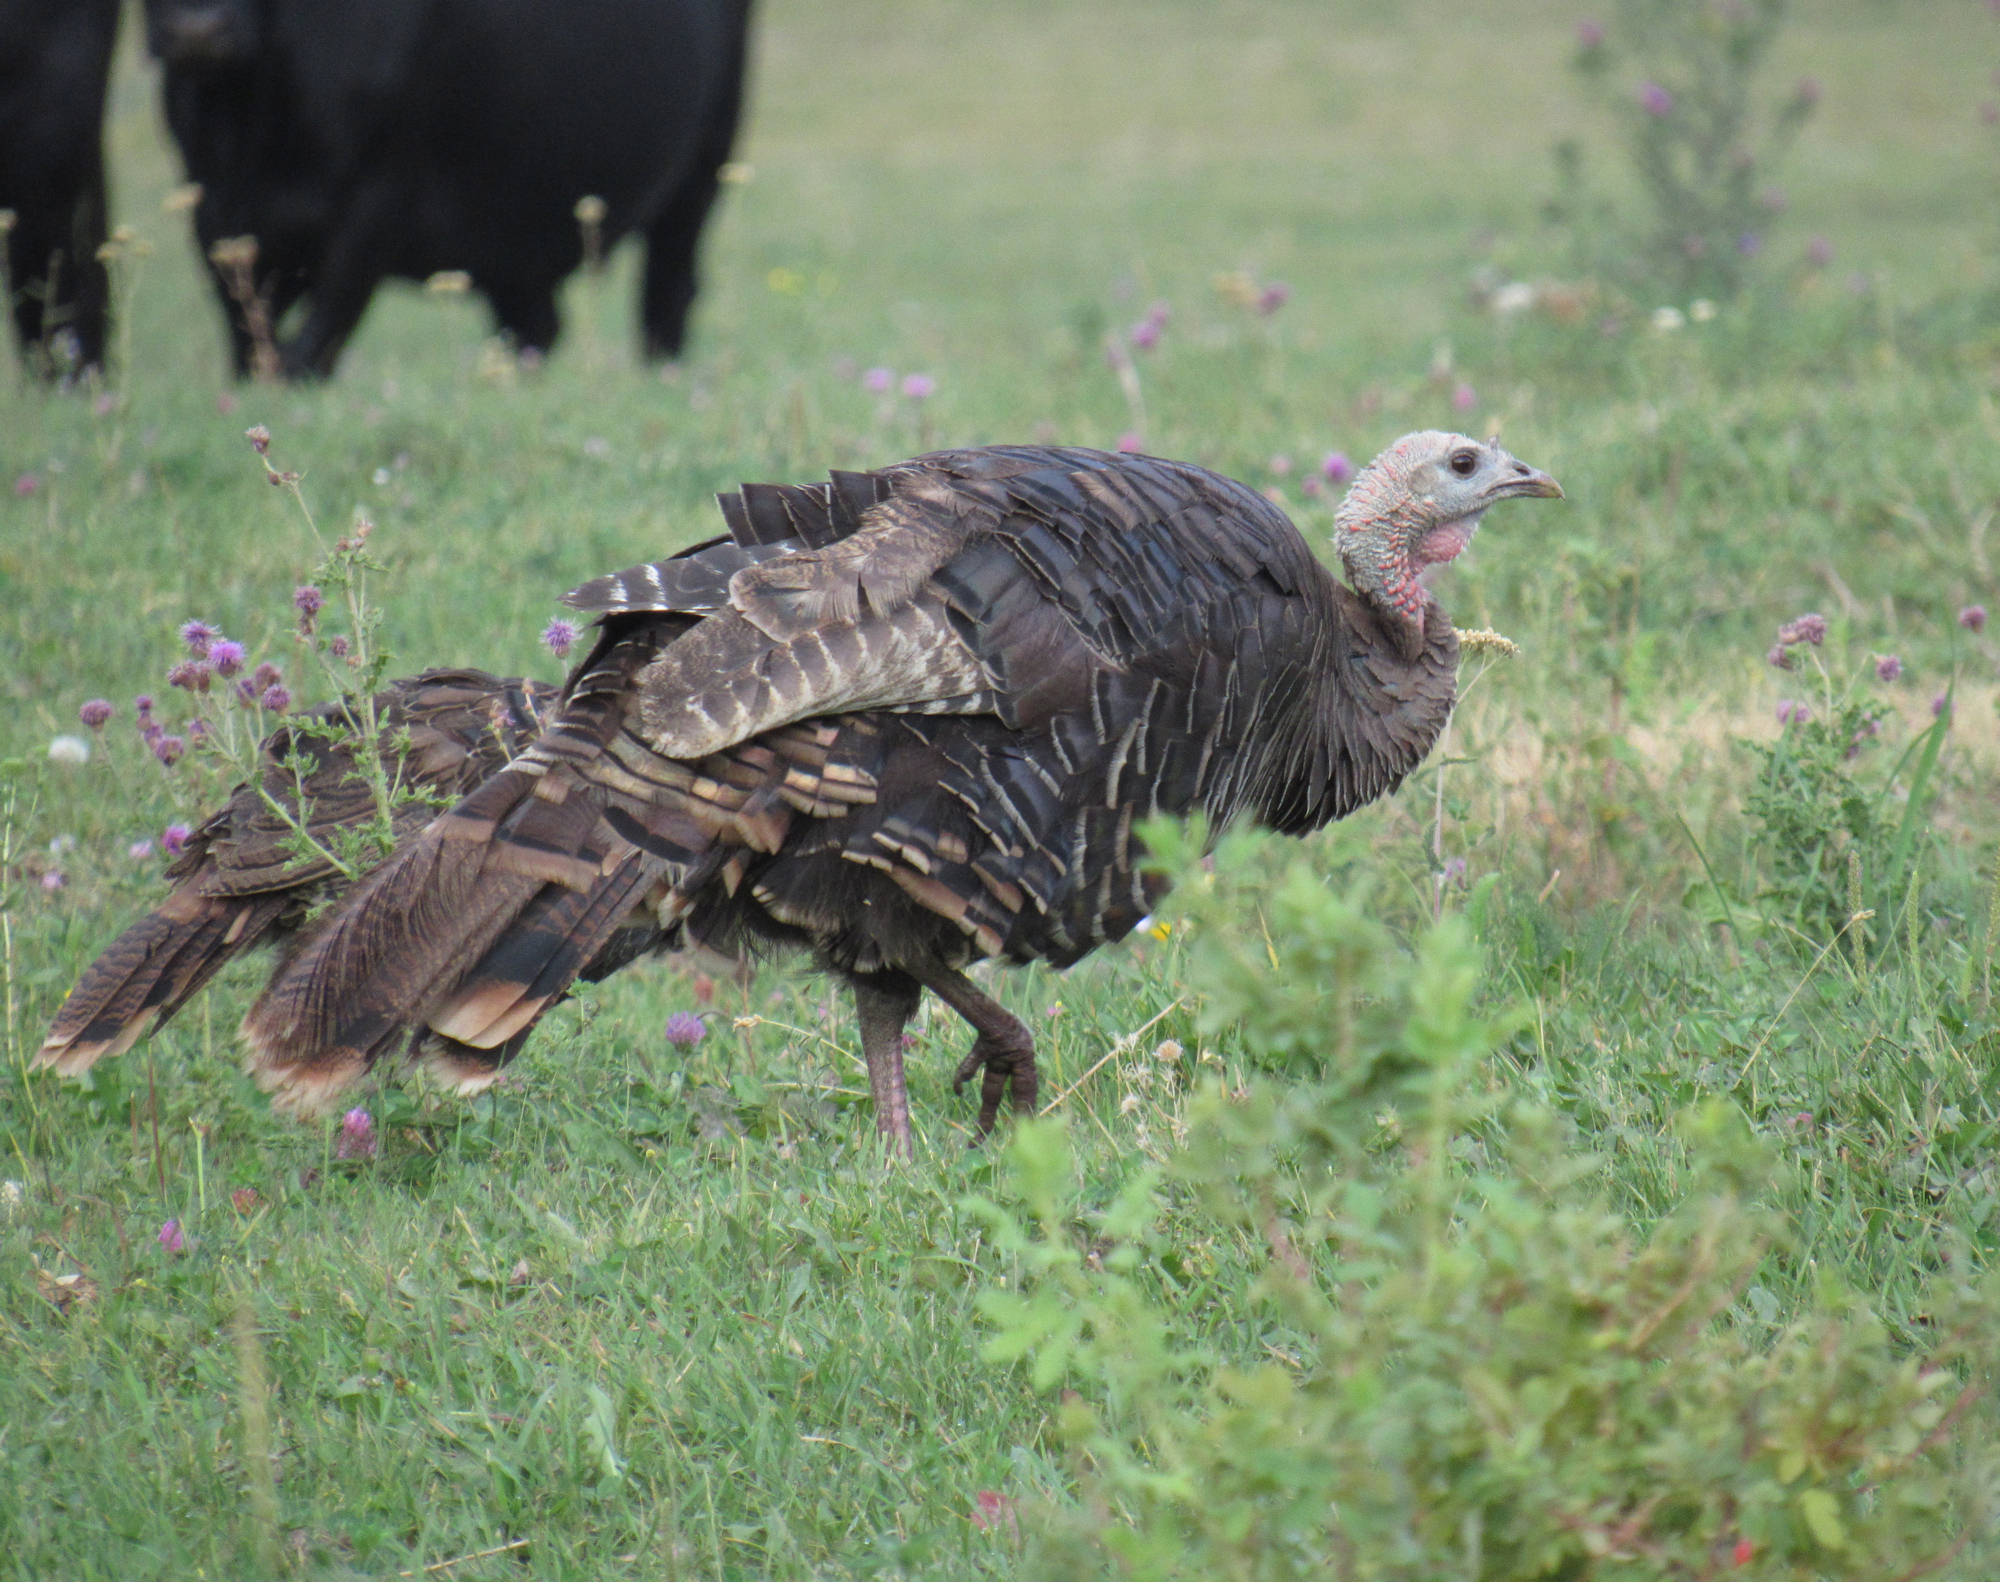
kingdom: Animalia
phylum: Chordata
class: Aves
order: Galliformes
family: Phasianidae
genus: Meleagris
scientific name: Meleagris gallopavo
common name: Wild turkey
